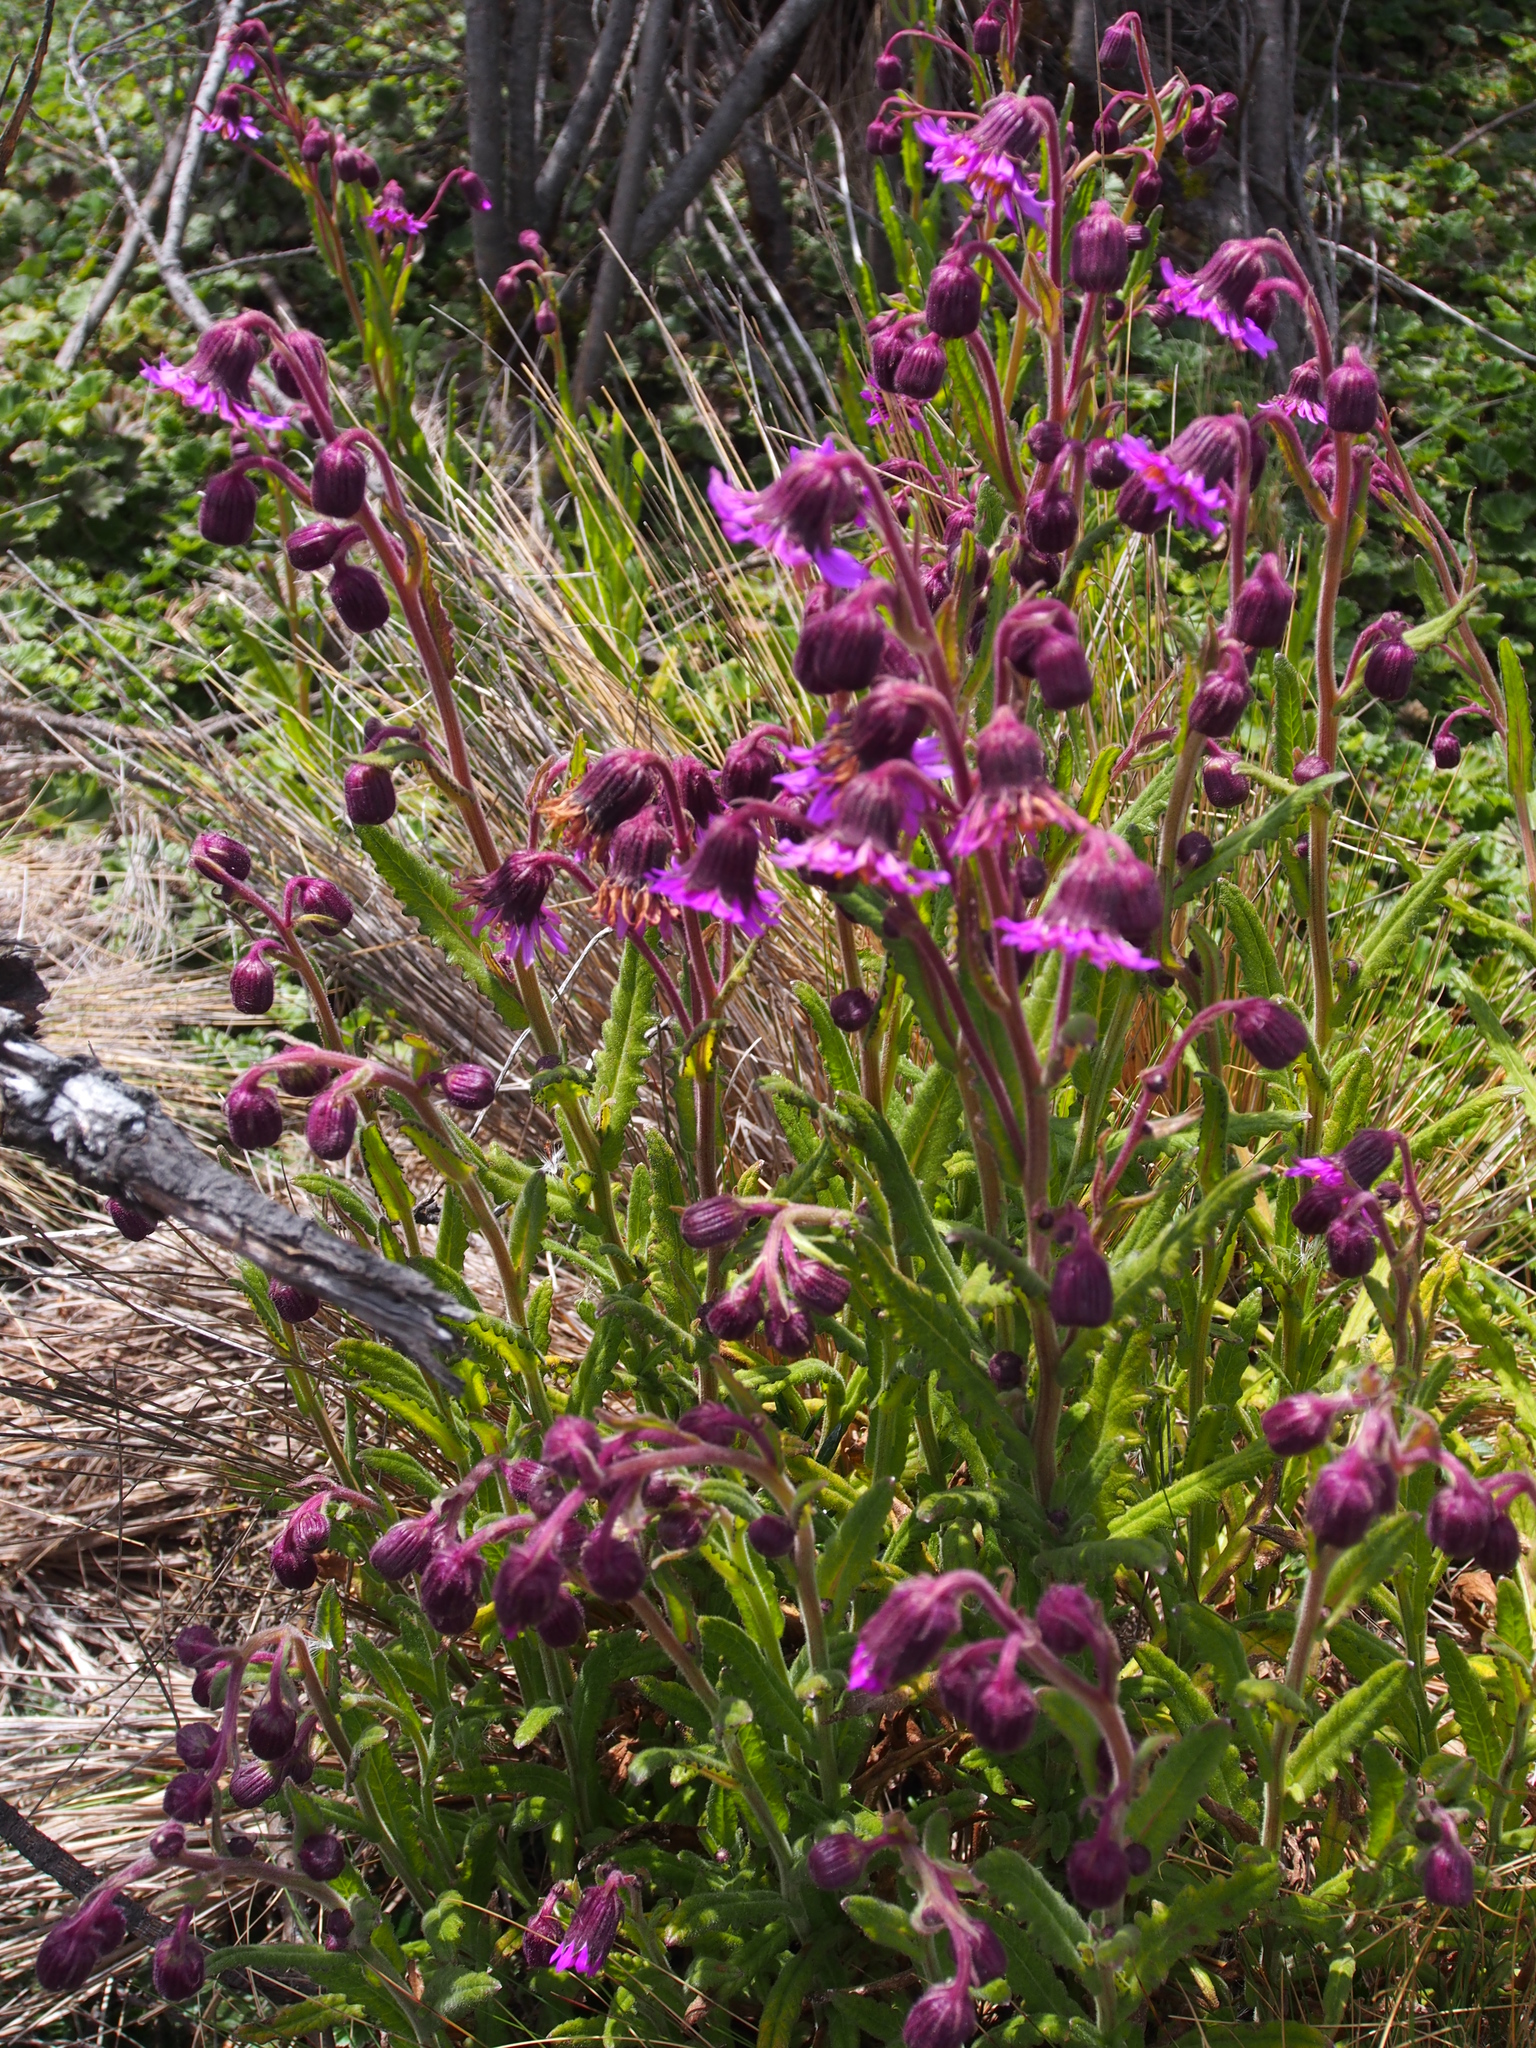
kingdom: Plantae
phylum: Tracheophyta
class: Magnoliopsida
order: Asterales
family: Asteraceae
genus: Senecio
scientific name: Senecio formosus
